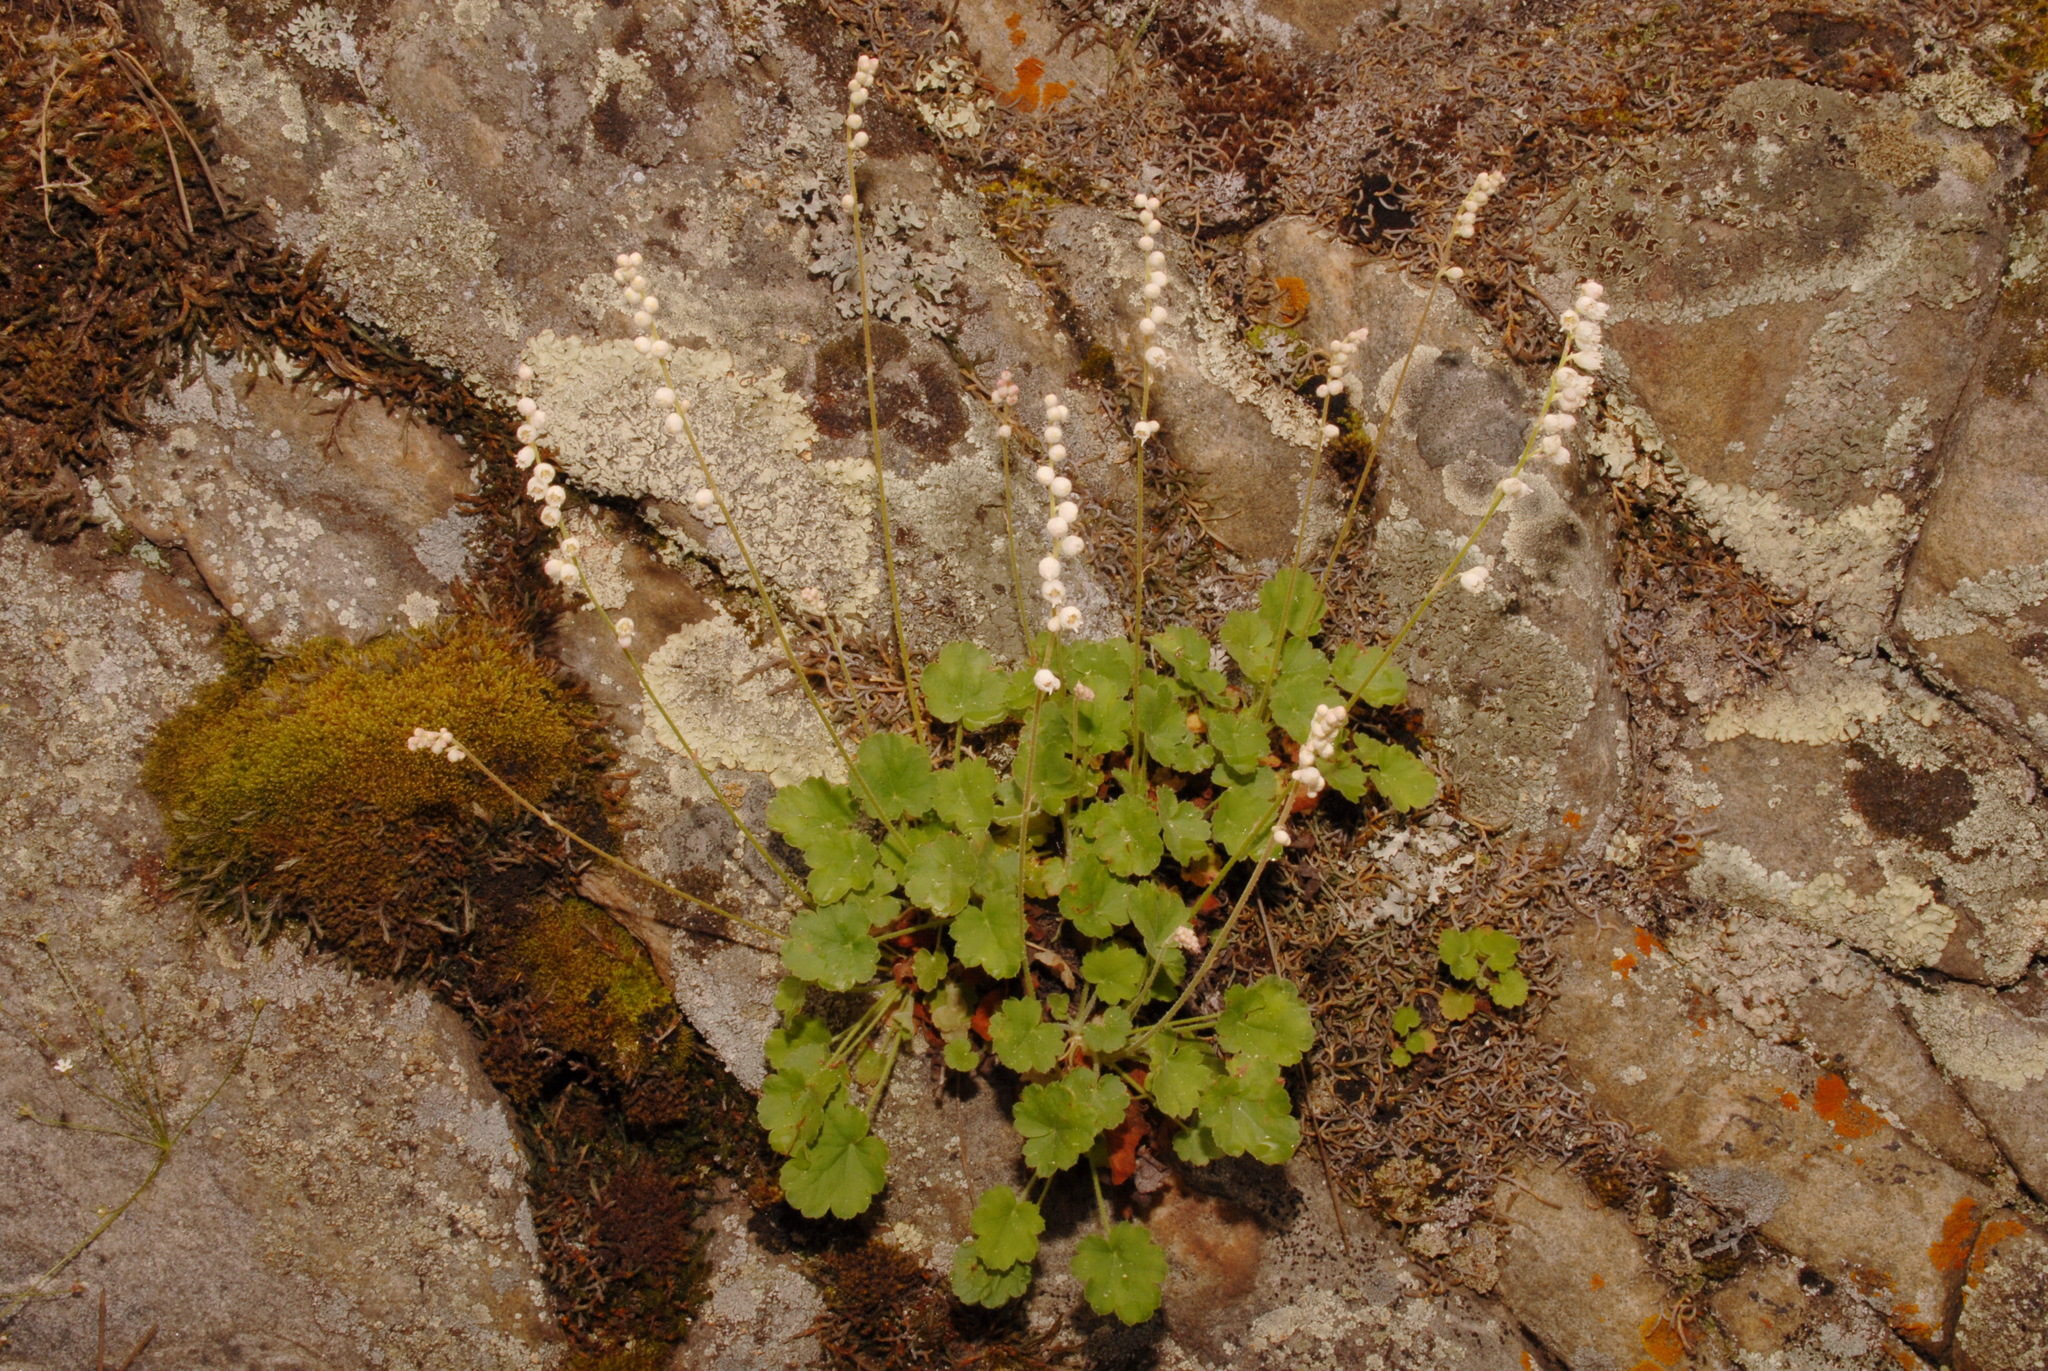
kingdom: Plantae
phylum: Tracheophyta
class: Magnoliopsida
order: Saxifragales
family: Saxifragaceae
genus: Heuchera
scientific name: Heuchera hallii
